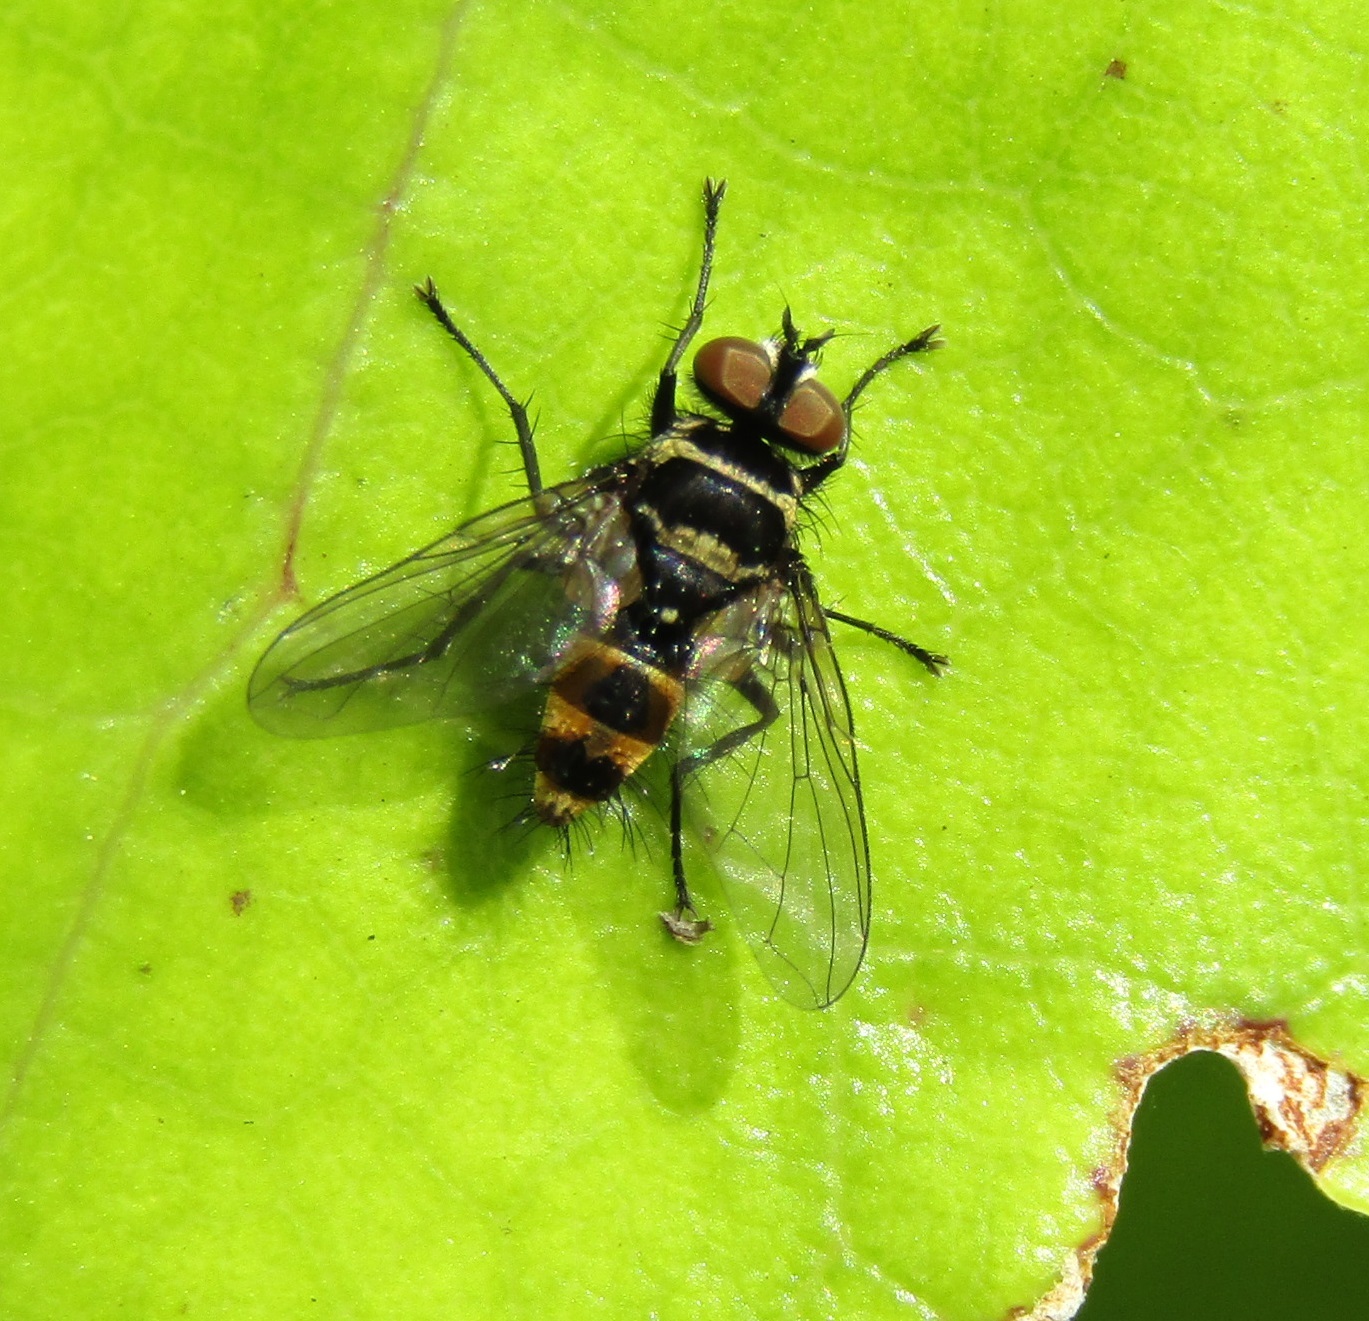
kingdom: Animalia
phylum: Arthropoda
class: Insecta
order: Diptera
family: Tachinidae
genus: Trigonospila
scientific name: Trigonospila brevifacies
